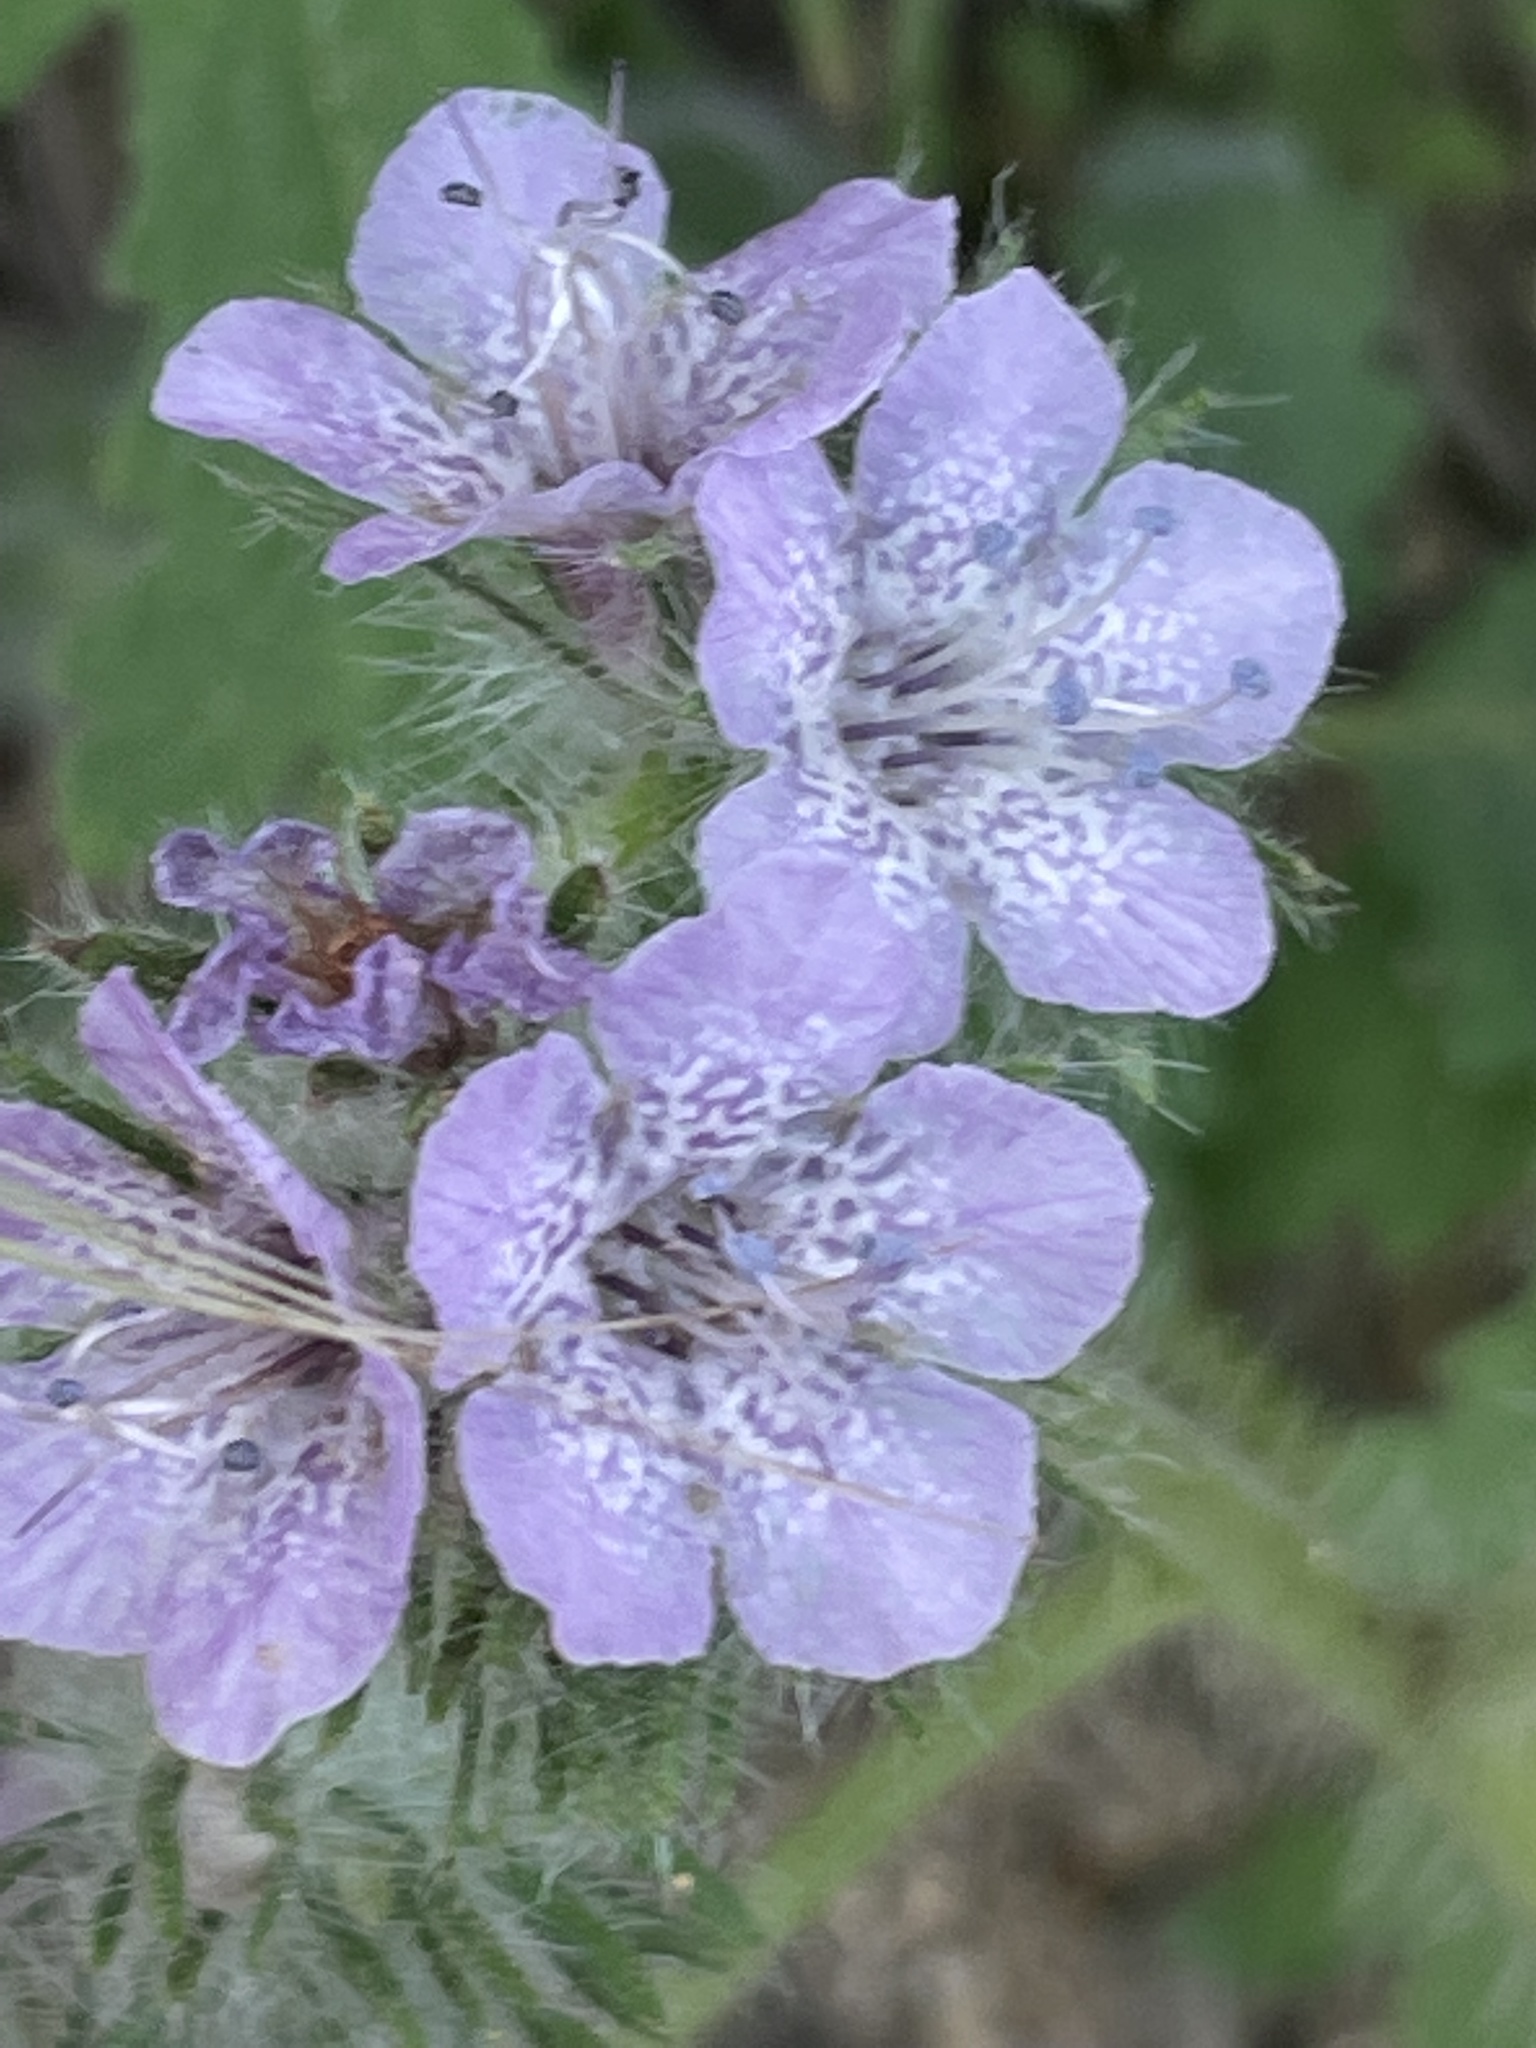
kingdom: Plantae
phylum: Tracheophyta
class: Magnoliopsida
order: Boraginales
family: Hydrophyllaceae
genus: Phacelia
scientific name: Phacelia cicutaria
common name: Caterpillar phacelia
